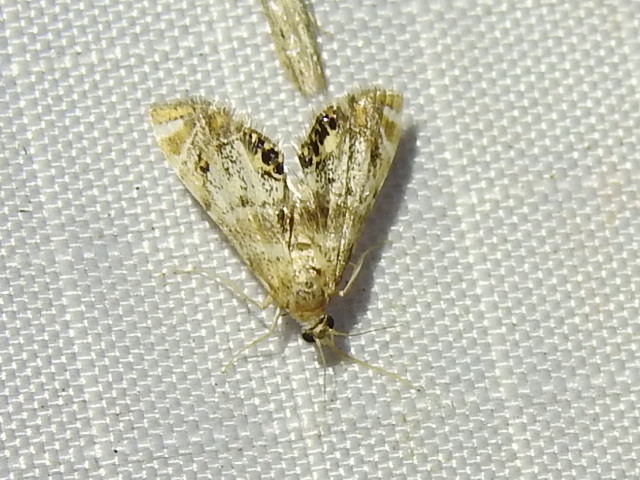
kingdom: Animalia
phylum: Arthropoda
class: Insecta
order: Lepidoptera
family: Crambidae
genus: Petrophila
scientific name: Petrophila fulicalis
